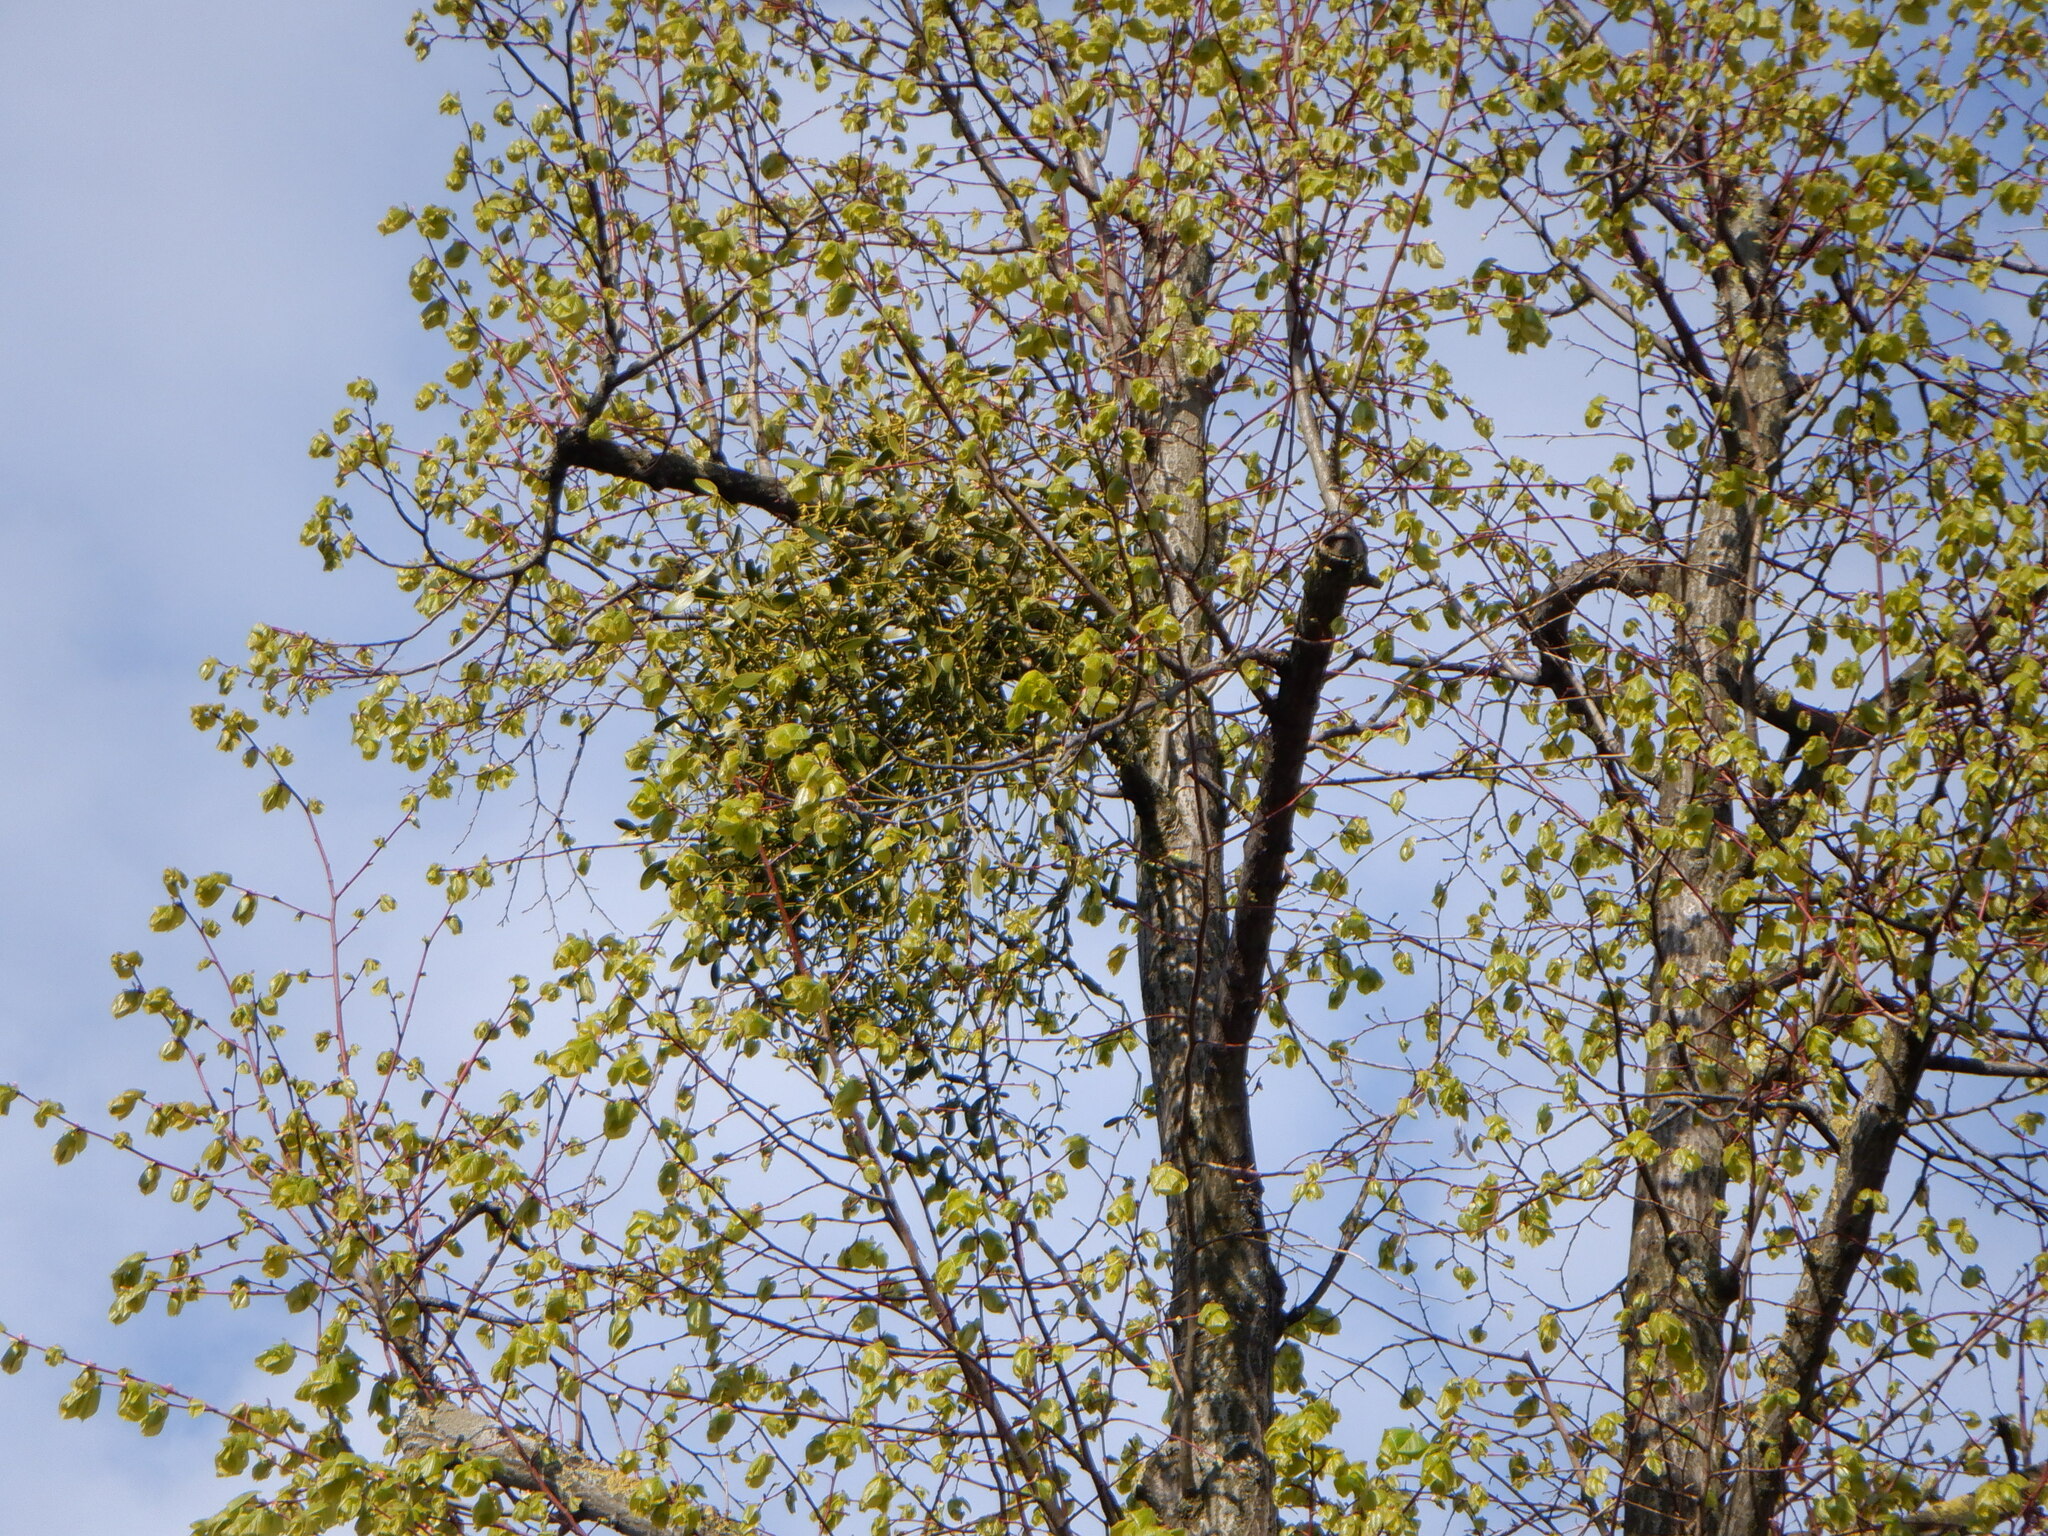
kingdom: Plantae
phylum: Tracheophyta
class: Magnoliopsida
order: Santalales
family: Viscaceae
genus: Viscum
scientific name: Viscum album
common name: Mistletoe
